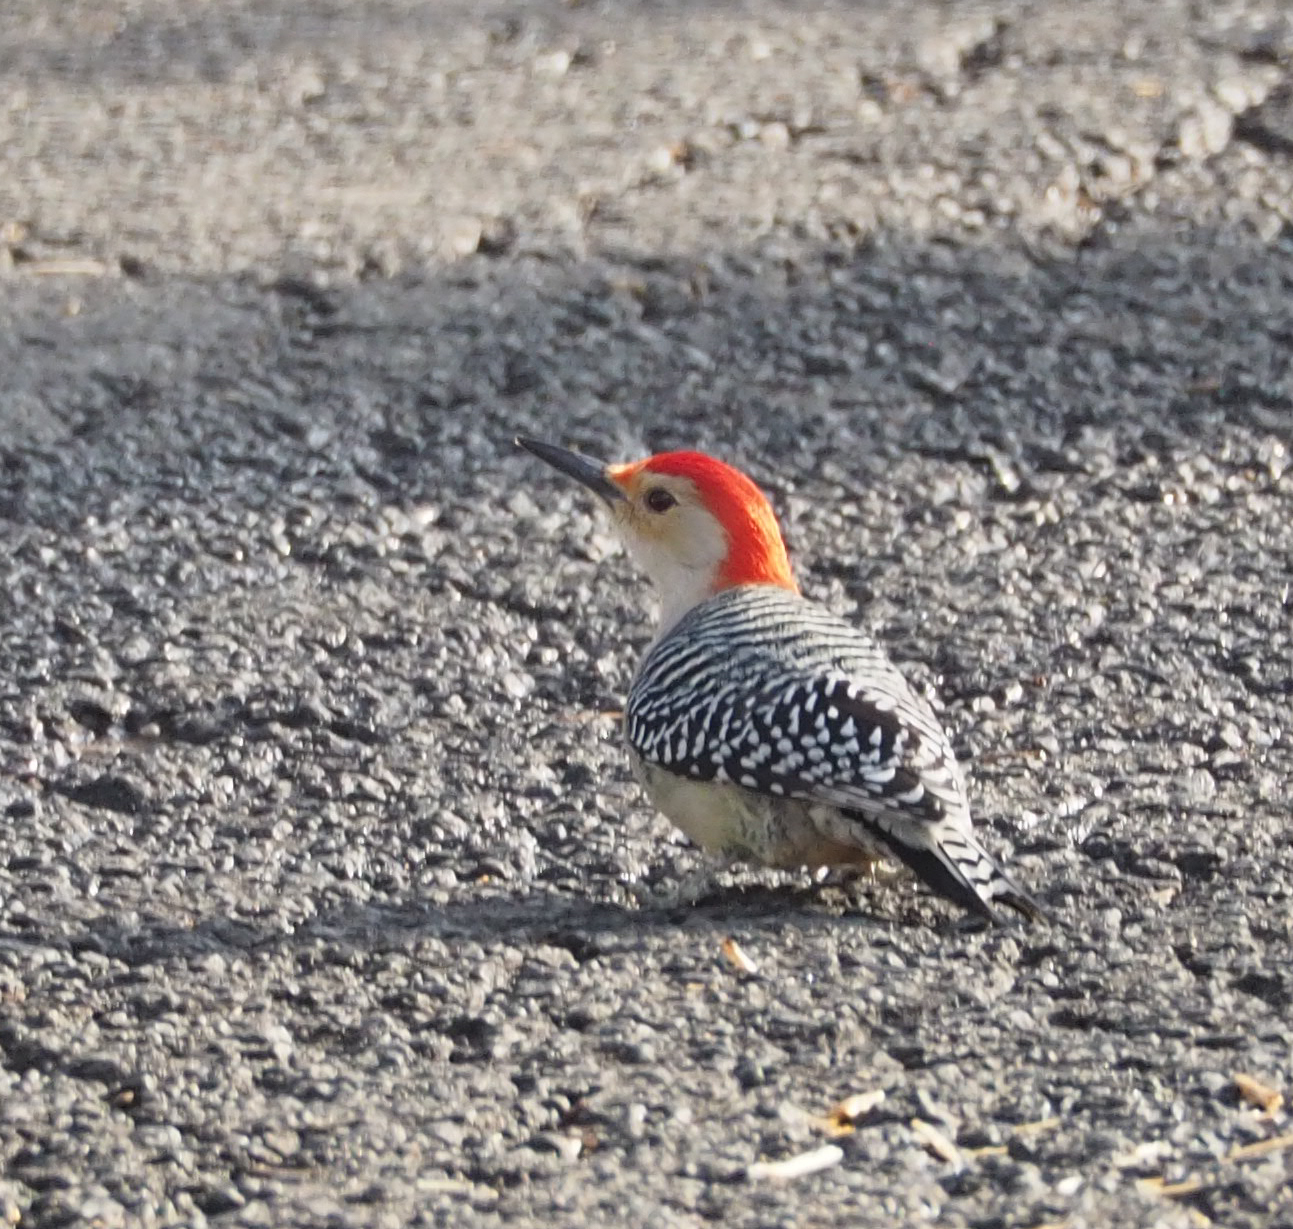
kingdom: Animalia
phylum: Chordata
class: Aves
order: Piciformes
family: Picidae
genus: Melanerpes
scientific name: Melanerpes carolinus
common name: Red-bellied woodpecker
